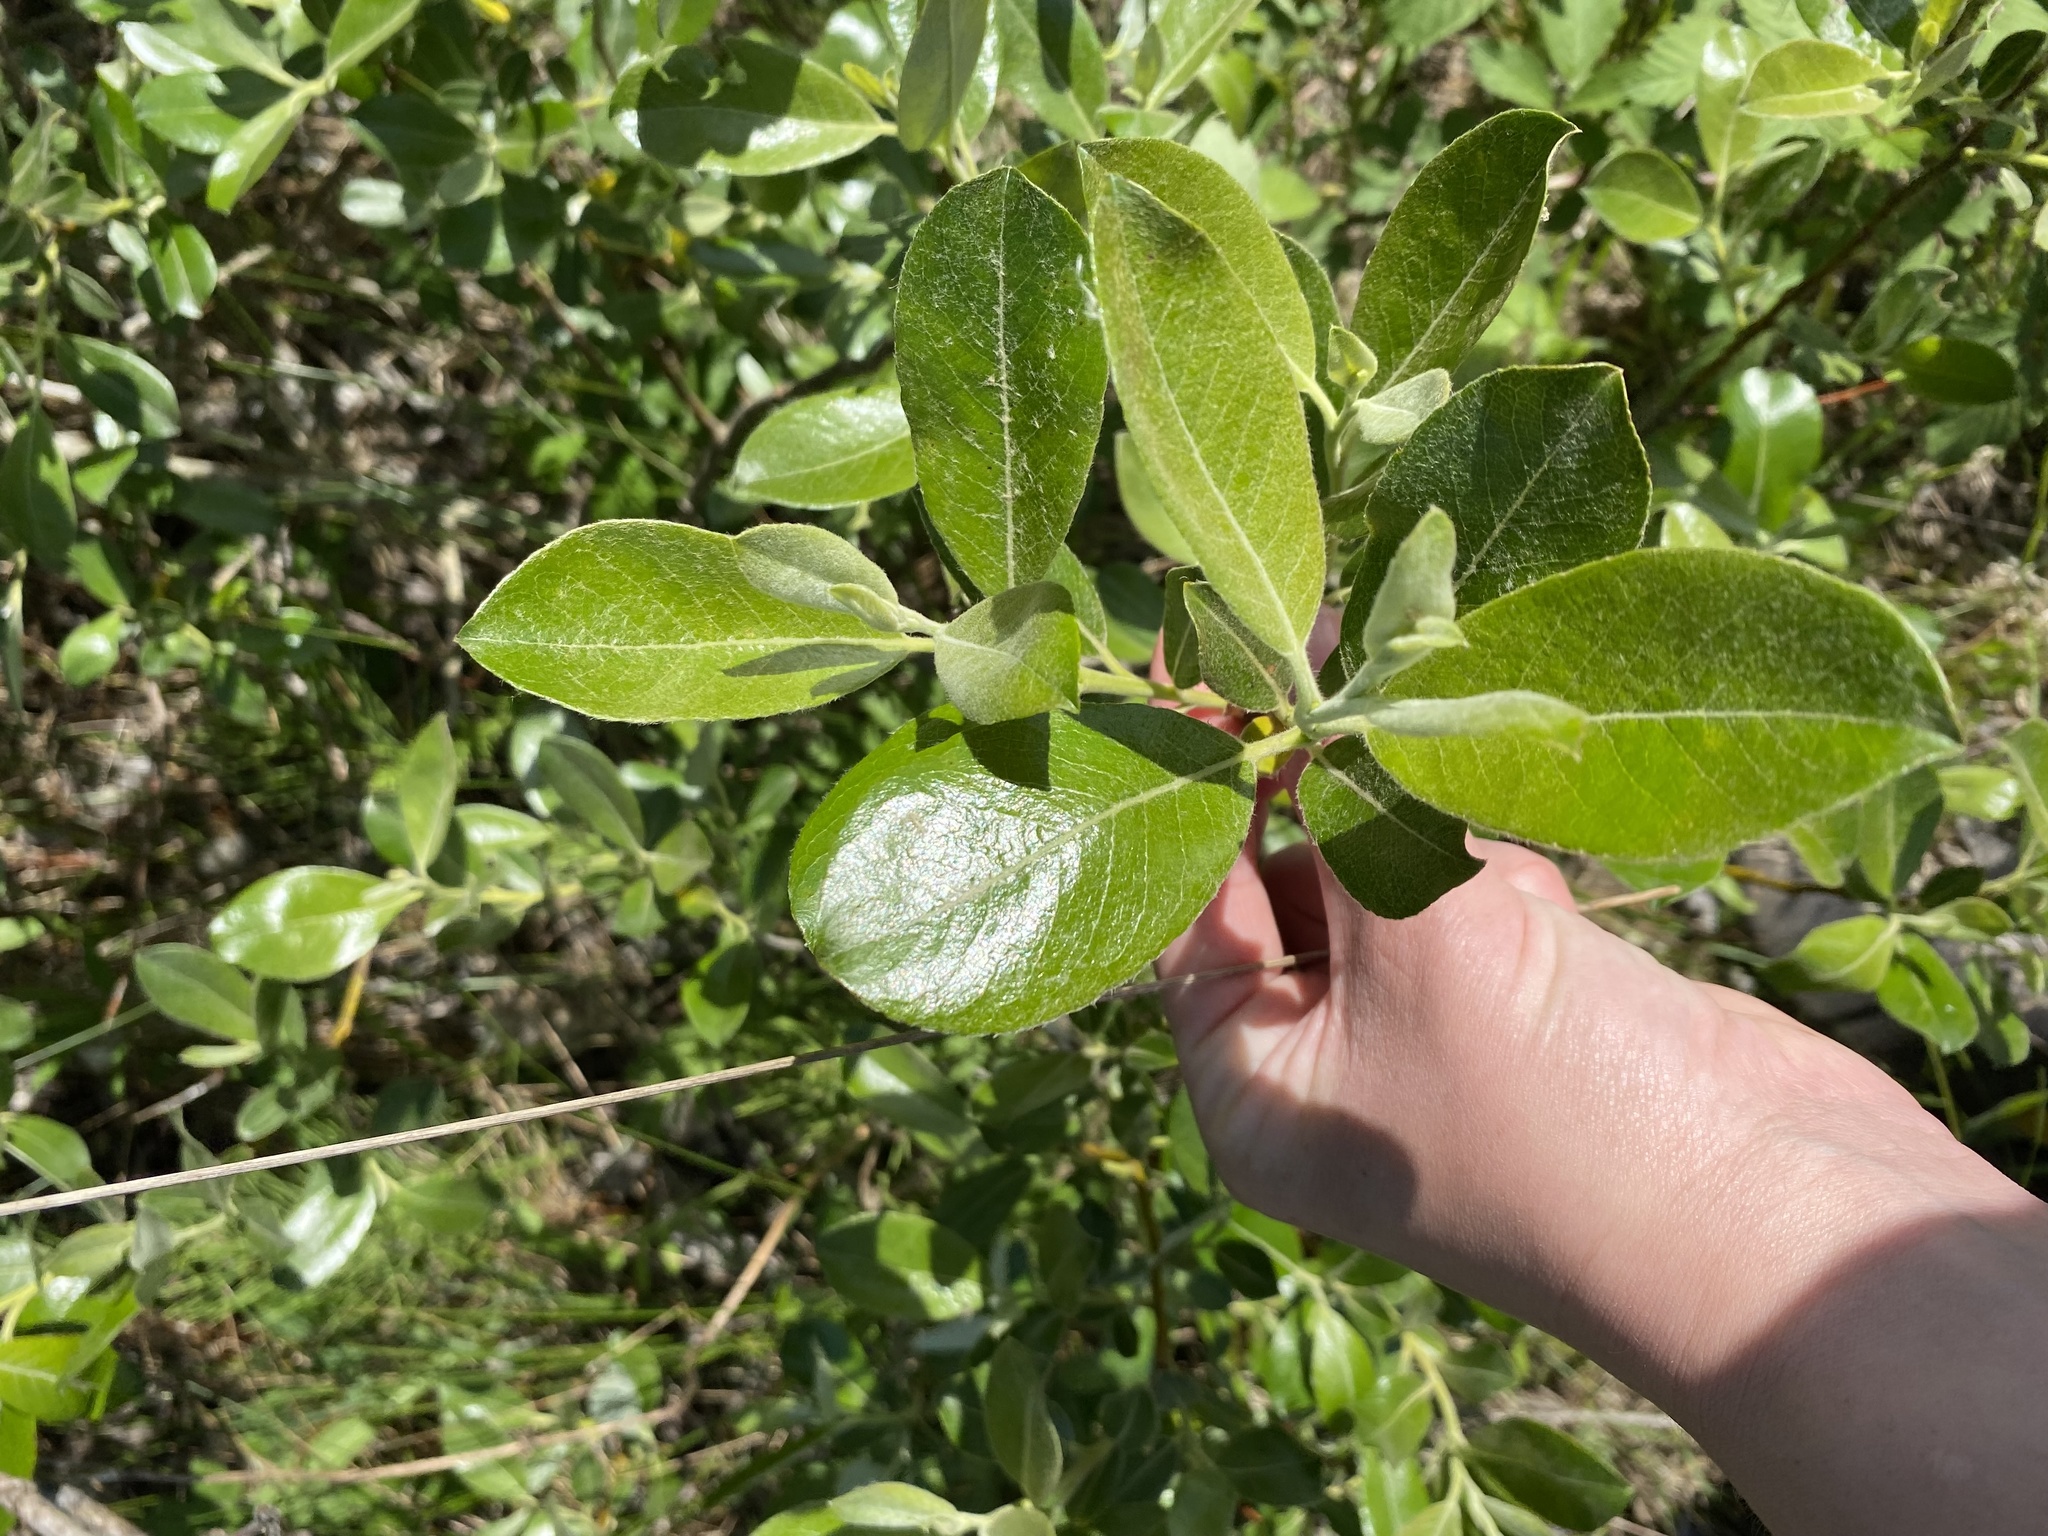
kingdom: Plantae
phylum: Tracheophyta
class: Magnoliopsida
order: Malpighiales
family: Salicaceae
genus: Salix
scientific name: Salix scouleriana
